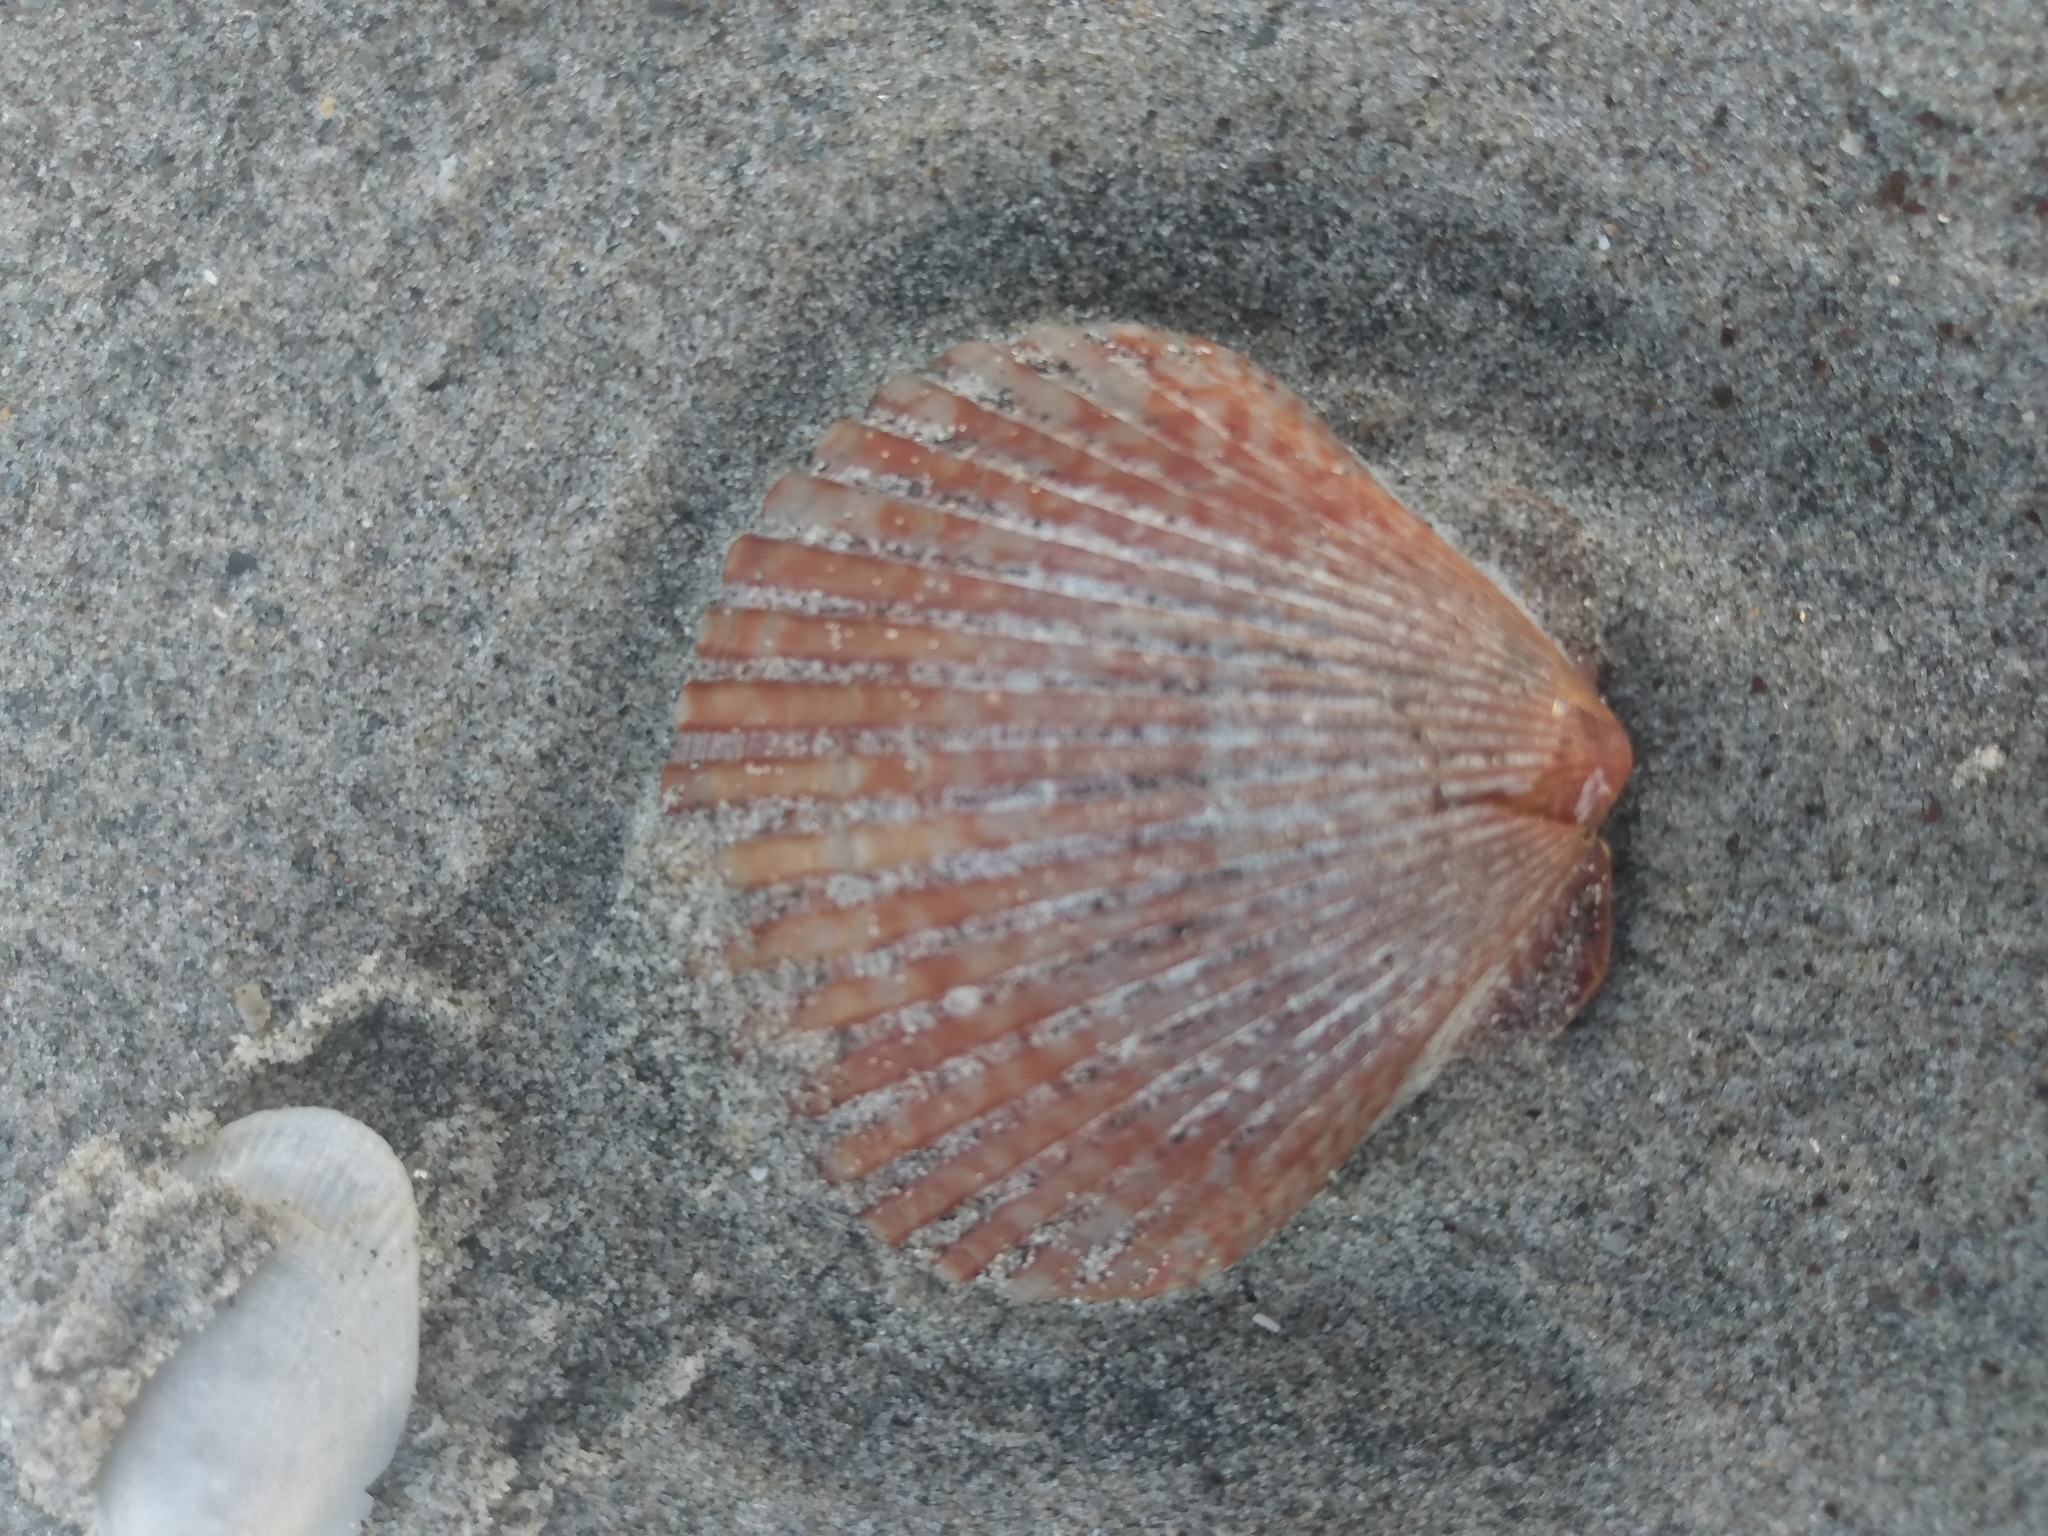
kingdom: Animalia
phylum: Mollusca
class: Bivalvia
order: Pectinida
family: Pectinidae
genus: Argopecten
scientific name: Argopecten ventricosus
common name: Catarina scallop
